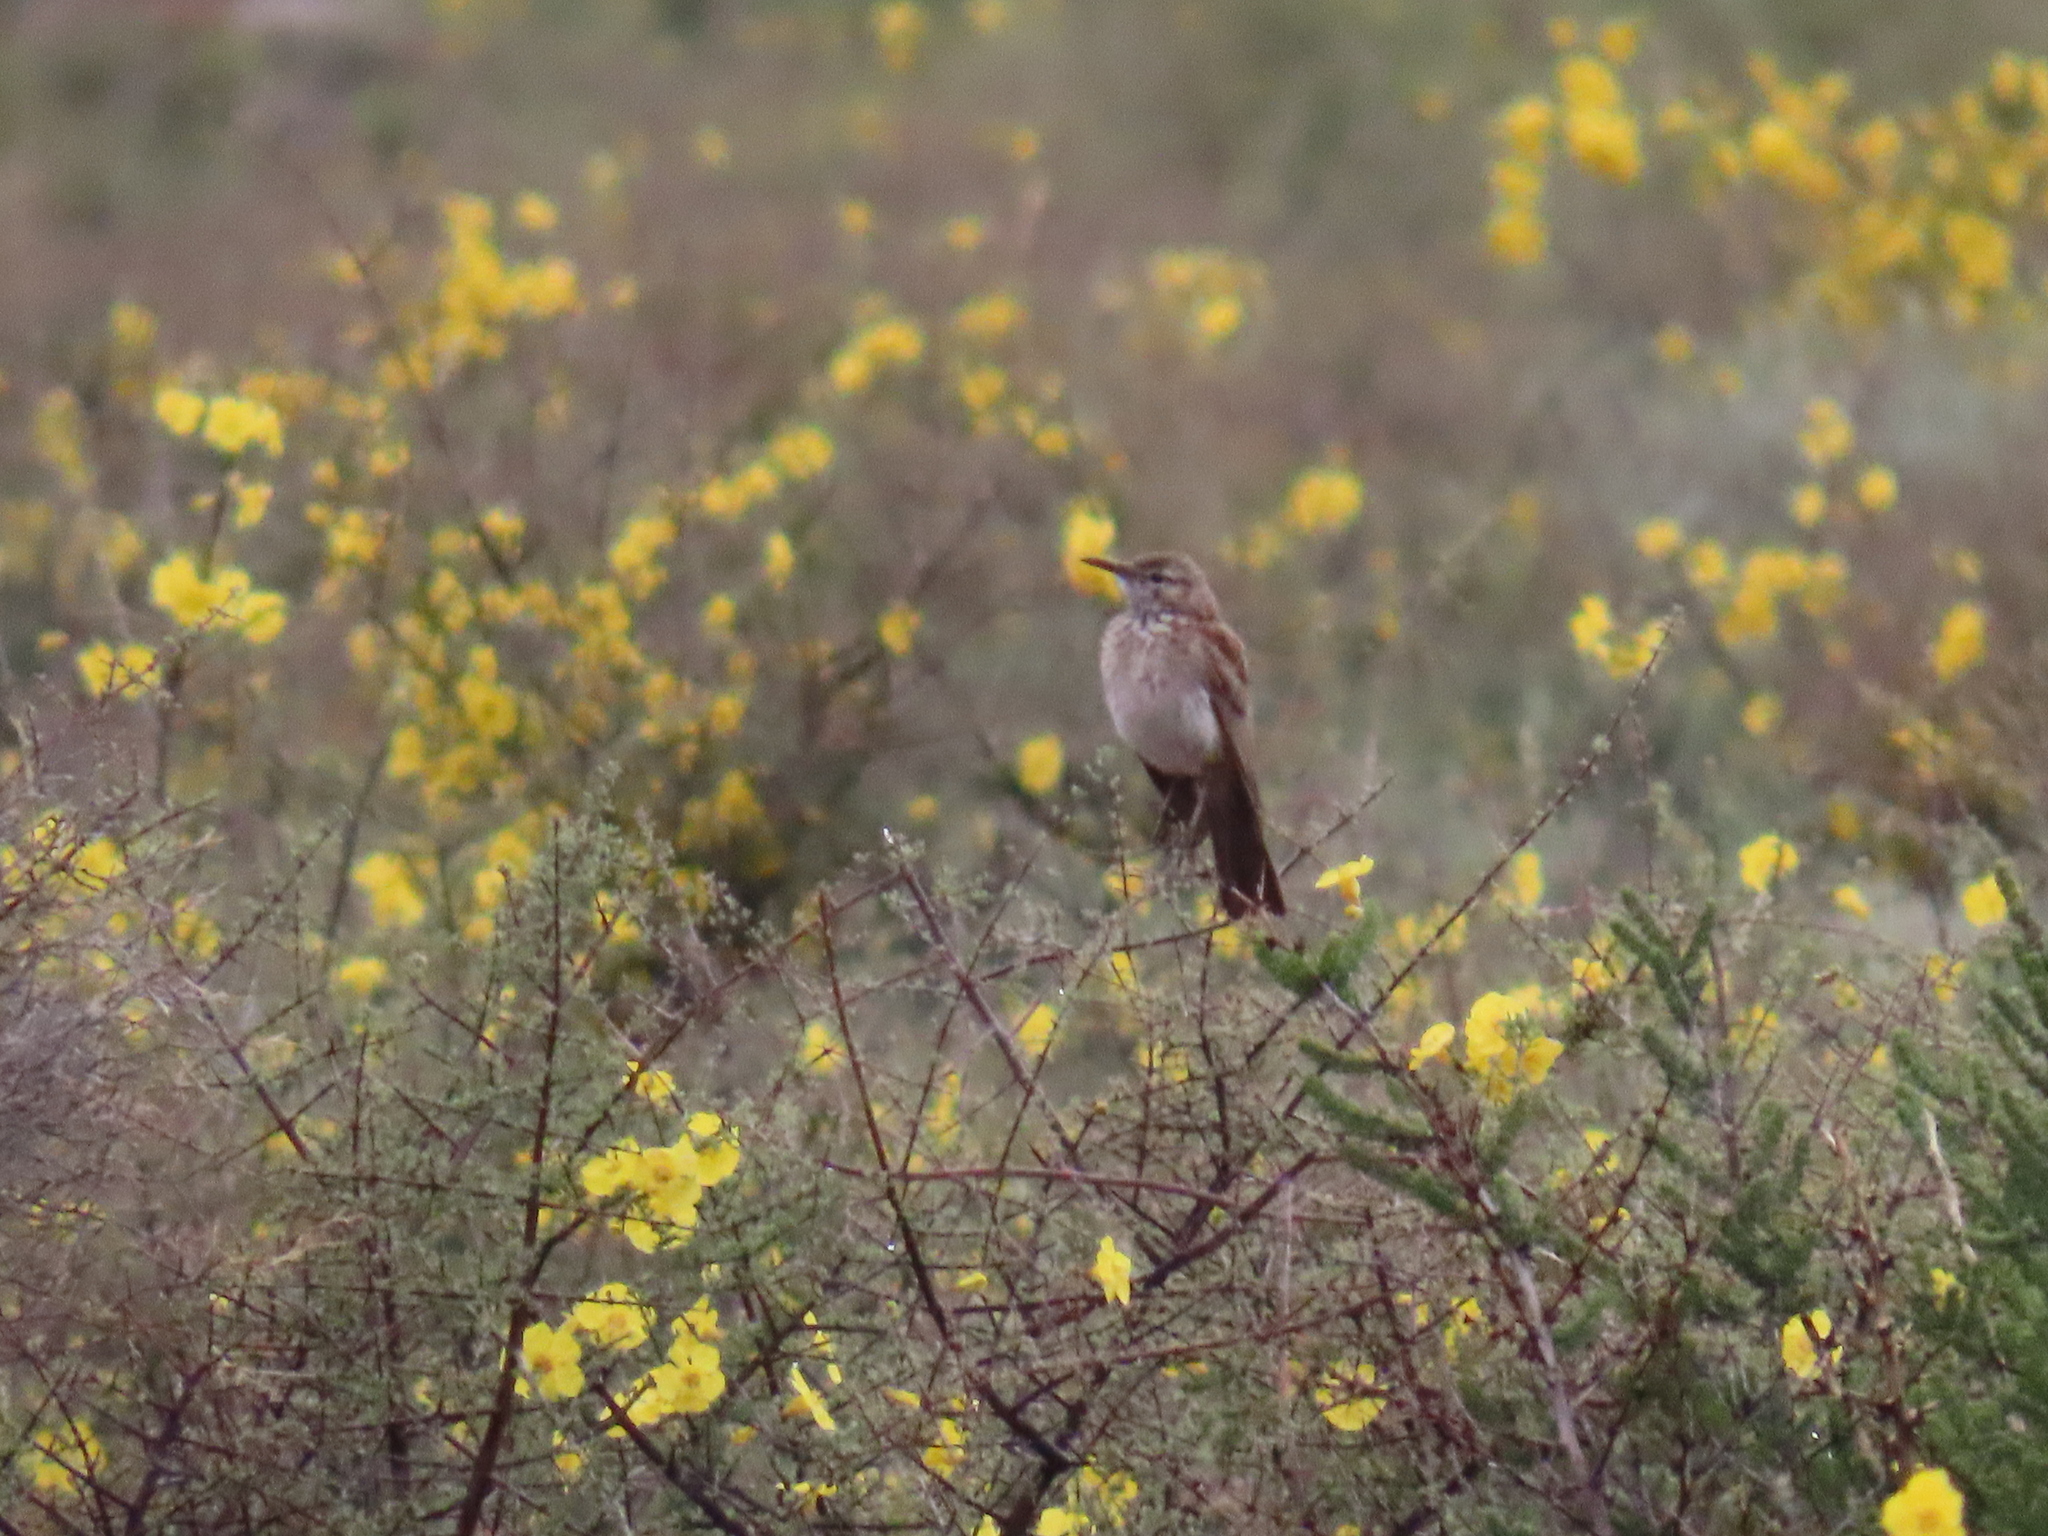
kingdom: Animalia
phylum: Chordata
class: Aves
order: Passeriformes
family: Alaudidae
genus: Certhilauda
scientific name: Certhilauda subcoronata
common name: Karoo long-billed lark
